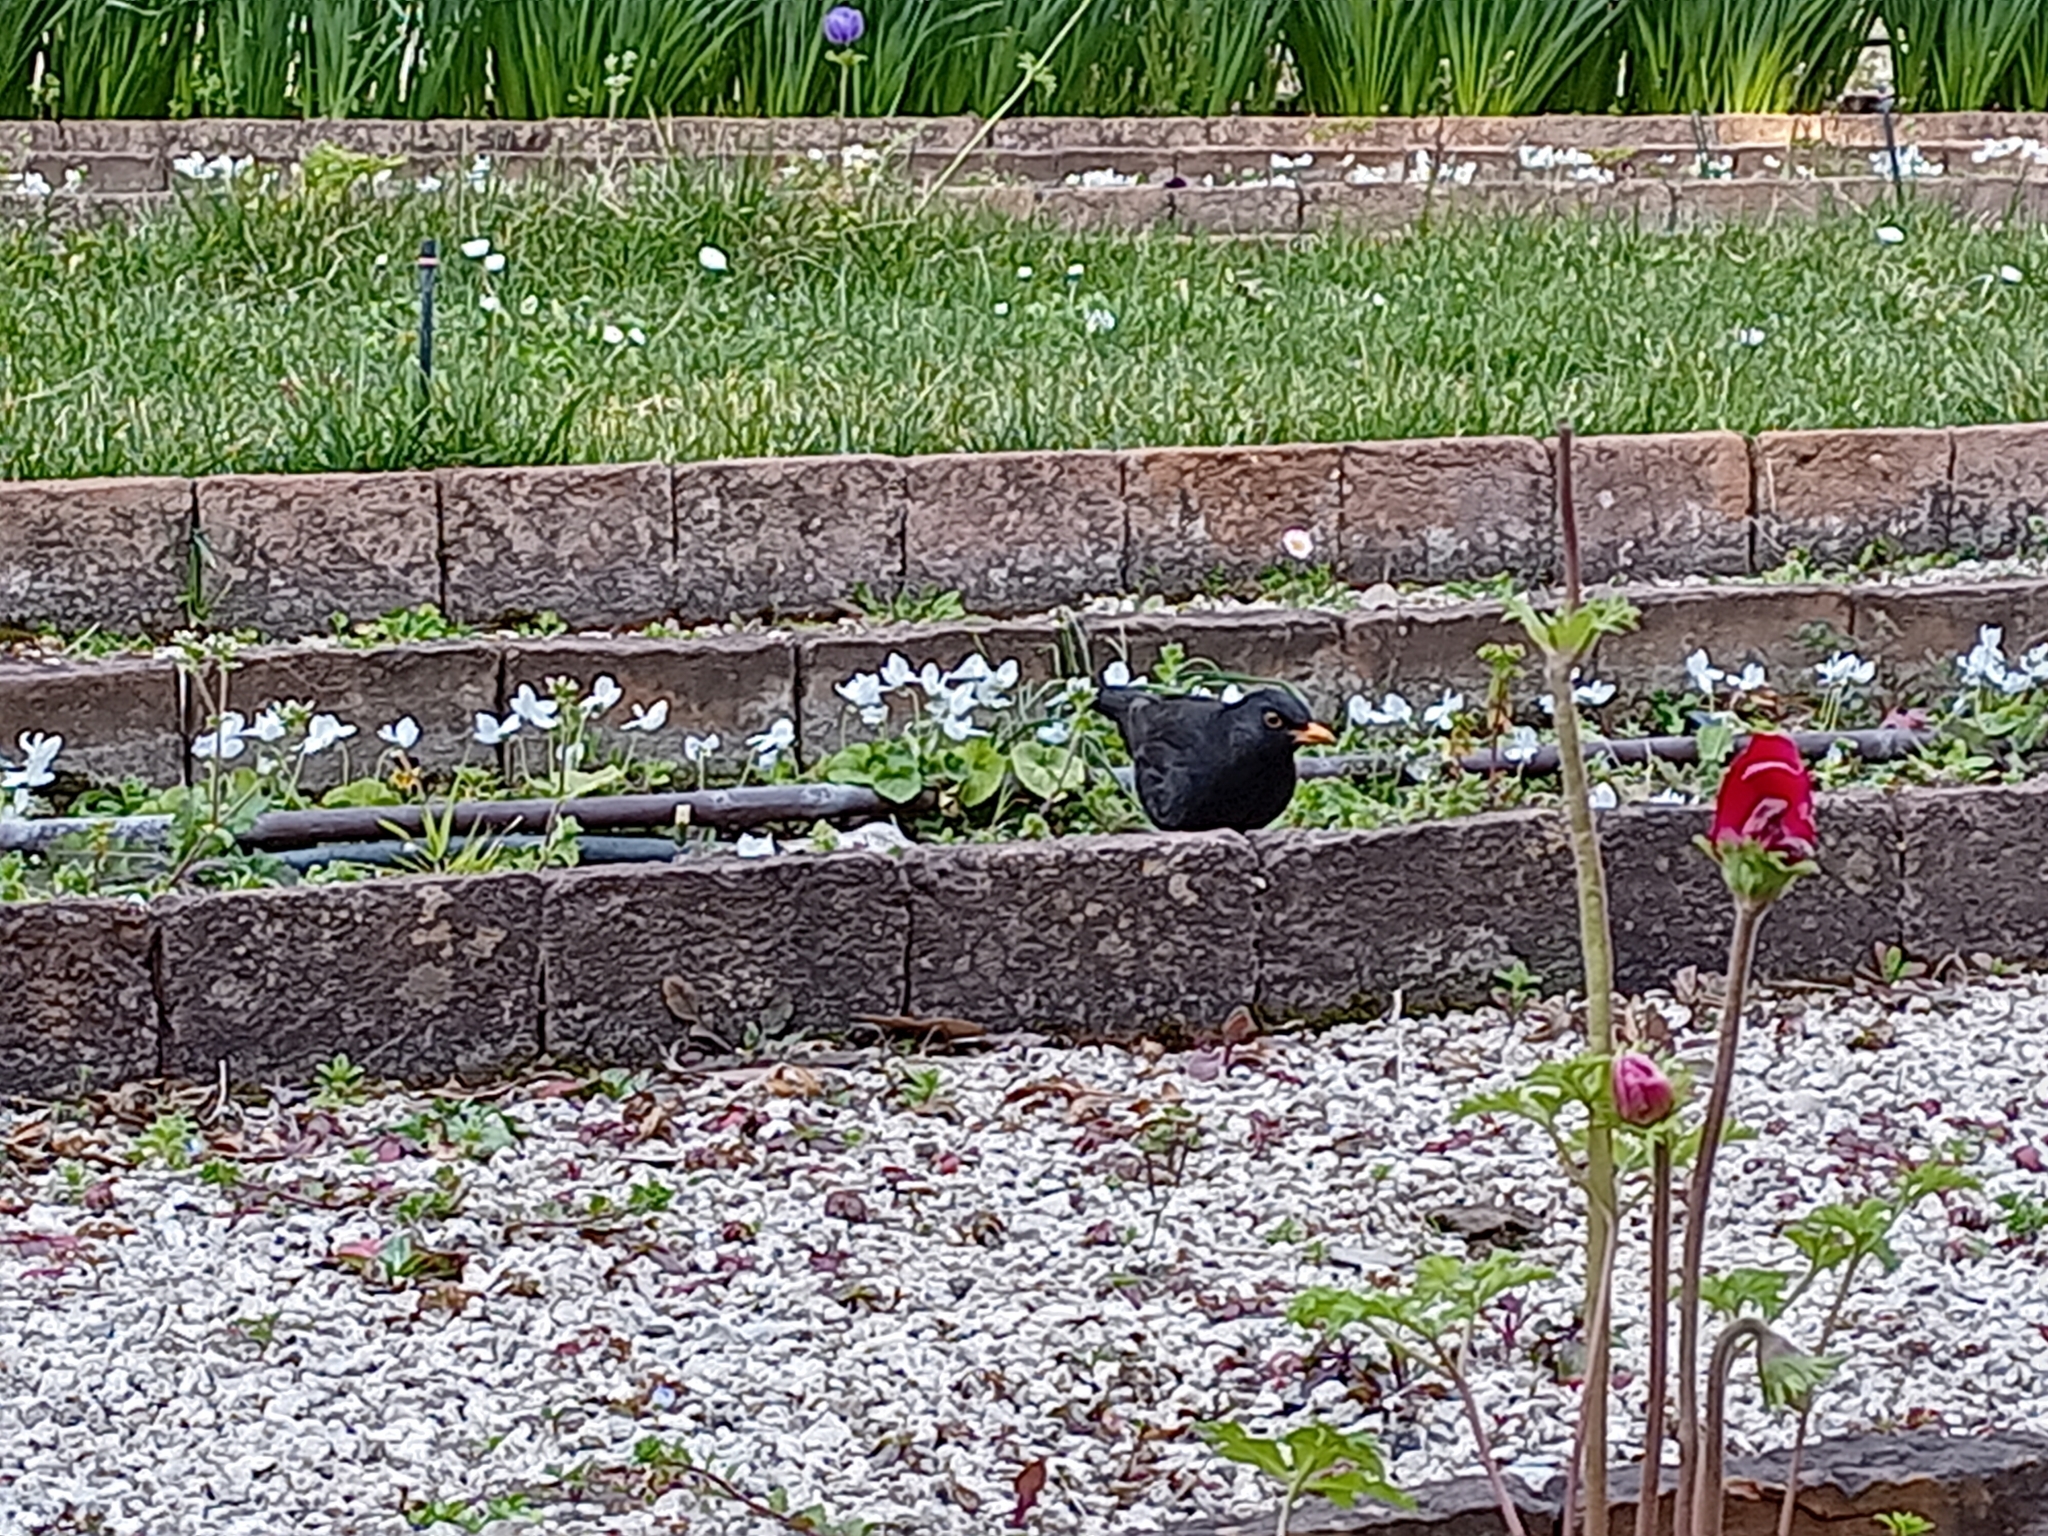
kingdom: Animalia
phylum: Chordata
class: Aves
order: Passeriformes
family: Turdidae
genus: Turdus
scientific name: Turdus merula
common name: Common blackbird
